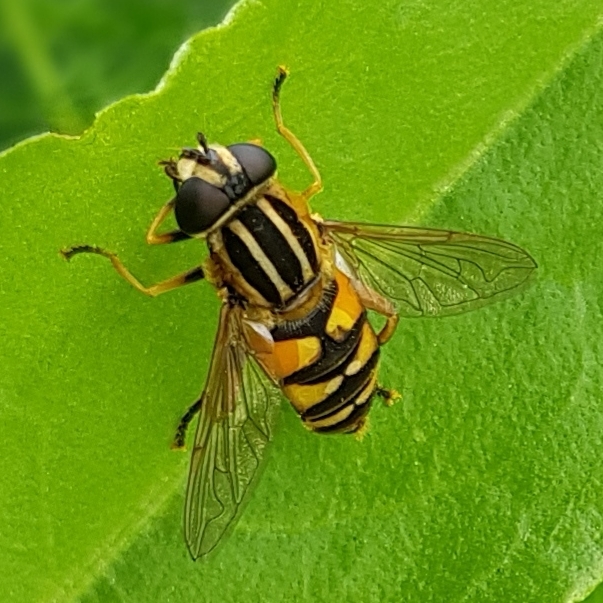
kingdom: Animalia
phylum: Arthropoda
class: Insecta
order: Diptera
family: Syrphidae
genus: Helophilus
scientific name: Helophilus pendulus
